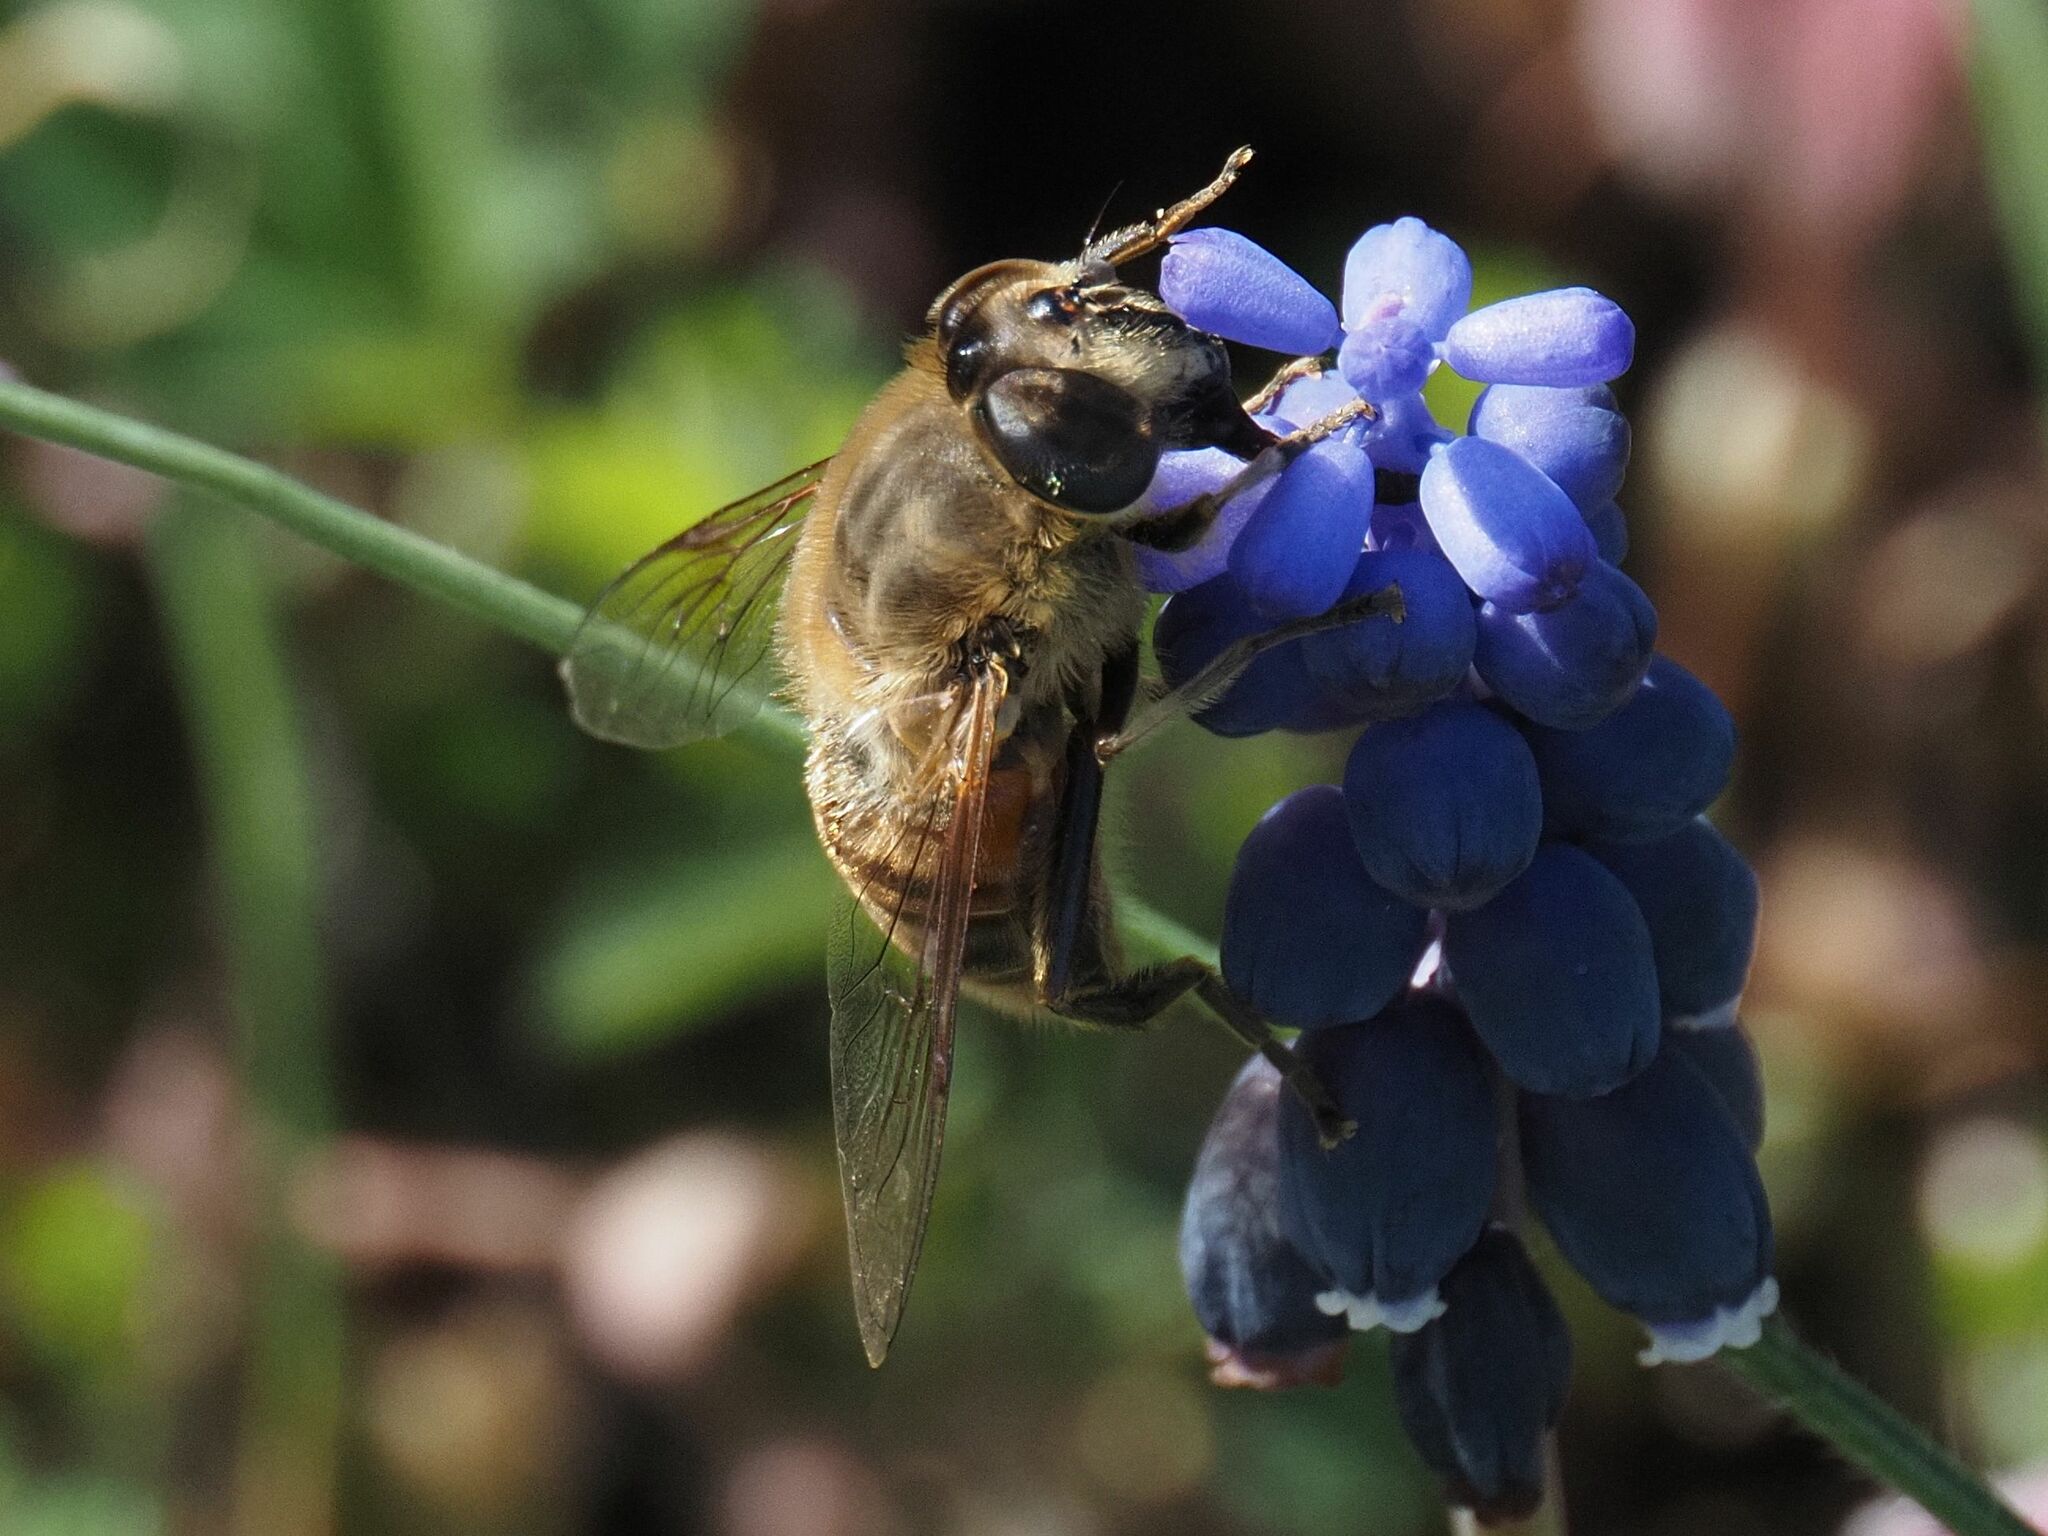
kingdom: Animalia
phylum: Arthropoda
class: Insecta
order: Diptera
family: Syrphidae
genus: Eristalis
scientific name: Eristalis tenax
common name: Drone fly
